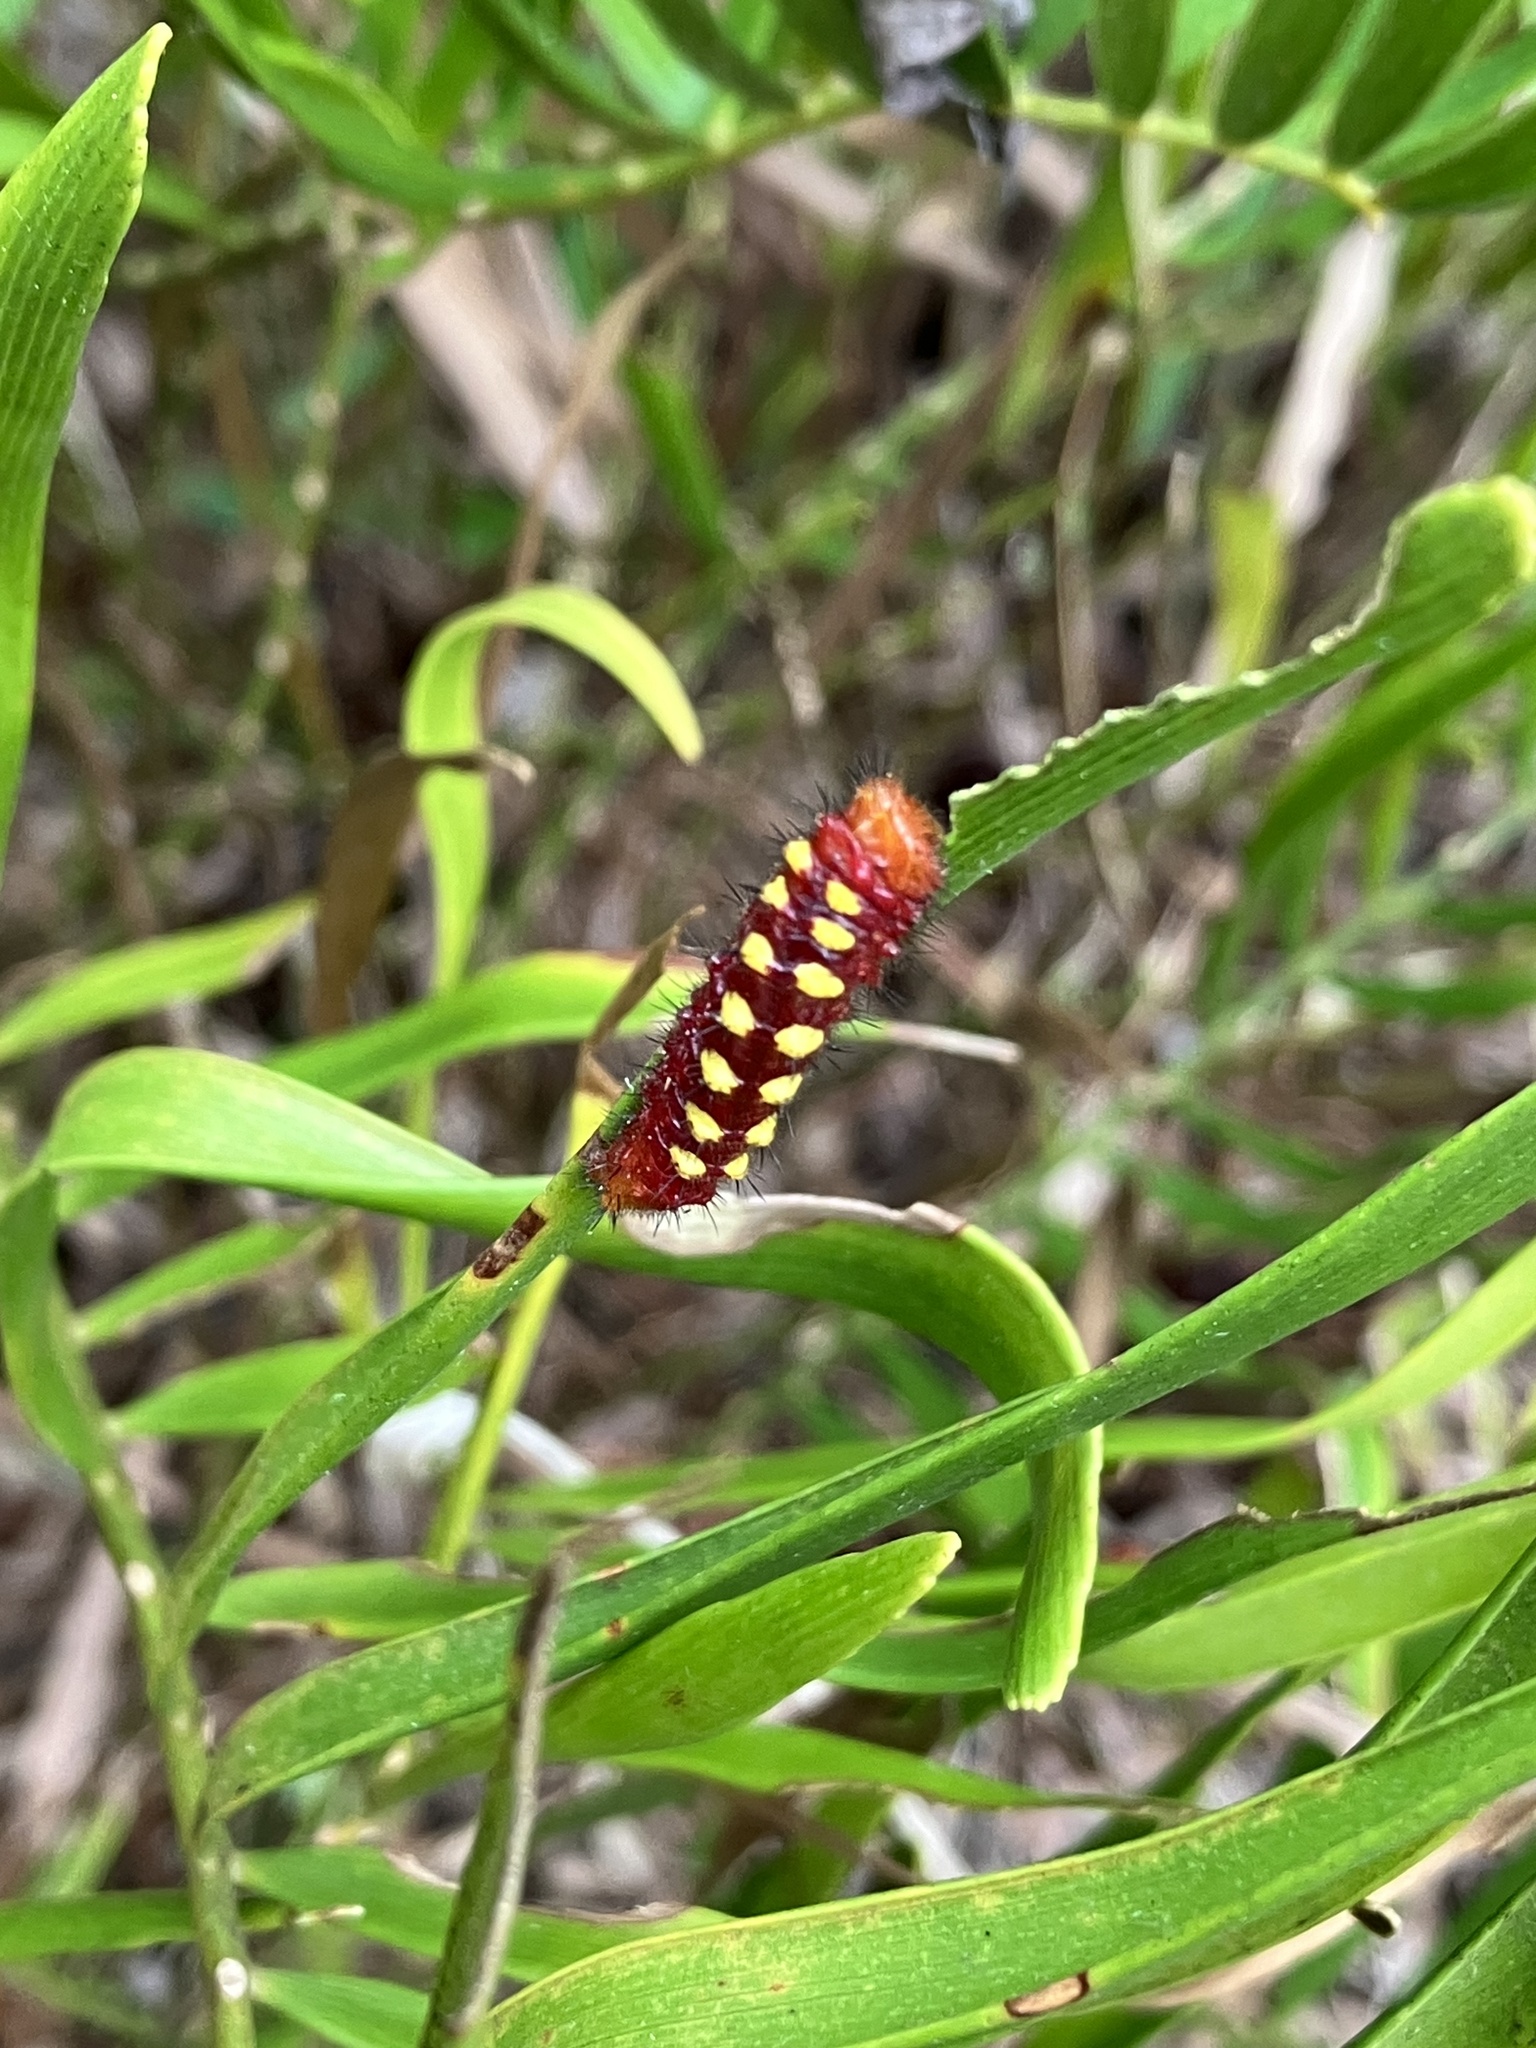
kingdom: Animalia
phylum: Arthropoda
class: Insecta
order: Lepidoptera
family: Lycaenidae
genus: Eumaeus
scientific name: Eumaeus atala
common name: Atala
